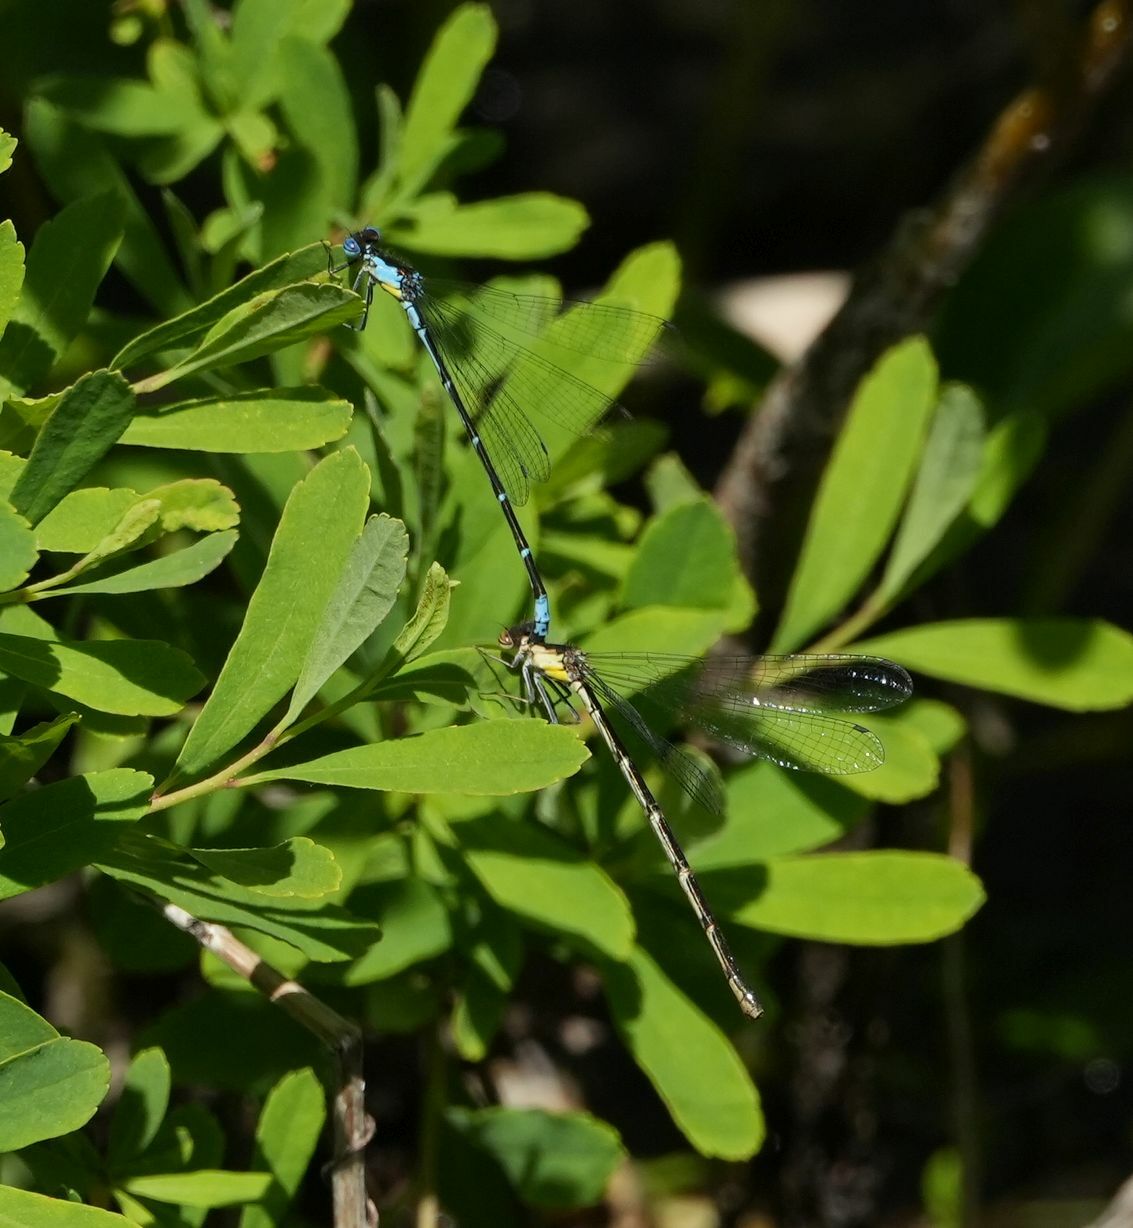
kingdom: Animalia
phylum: Arthropoda
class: Insecta
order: Odonata
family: Coenagrionidae
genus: Chromagrion
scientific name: Chromagrion conditum
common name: Aurora damsel
